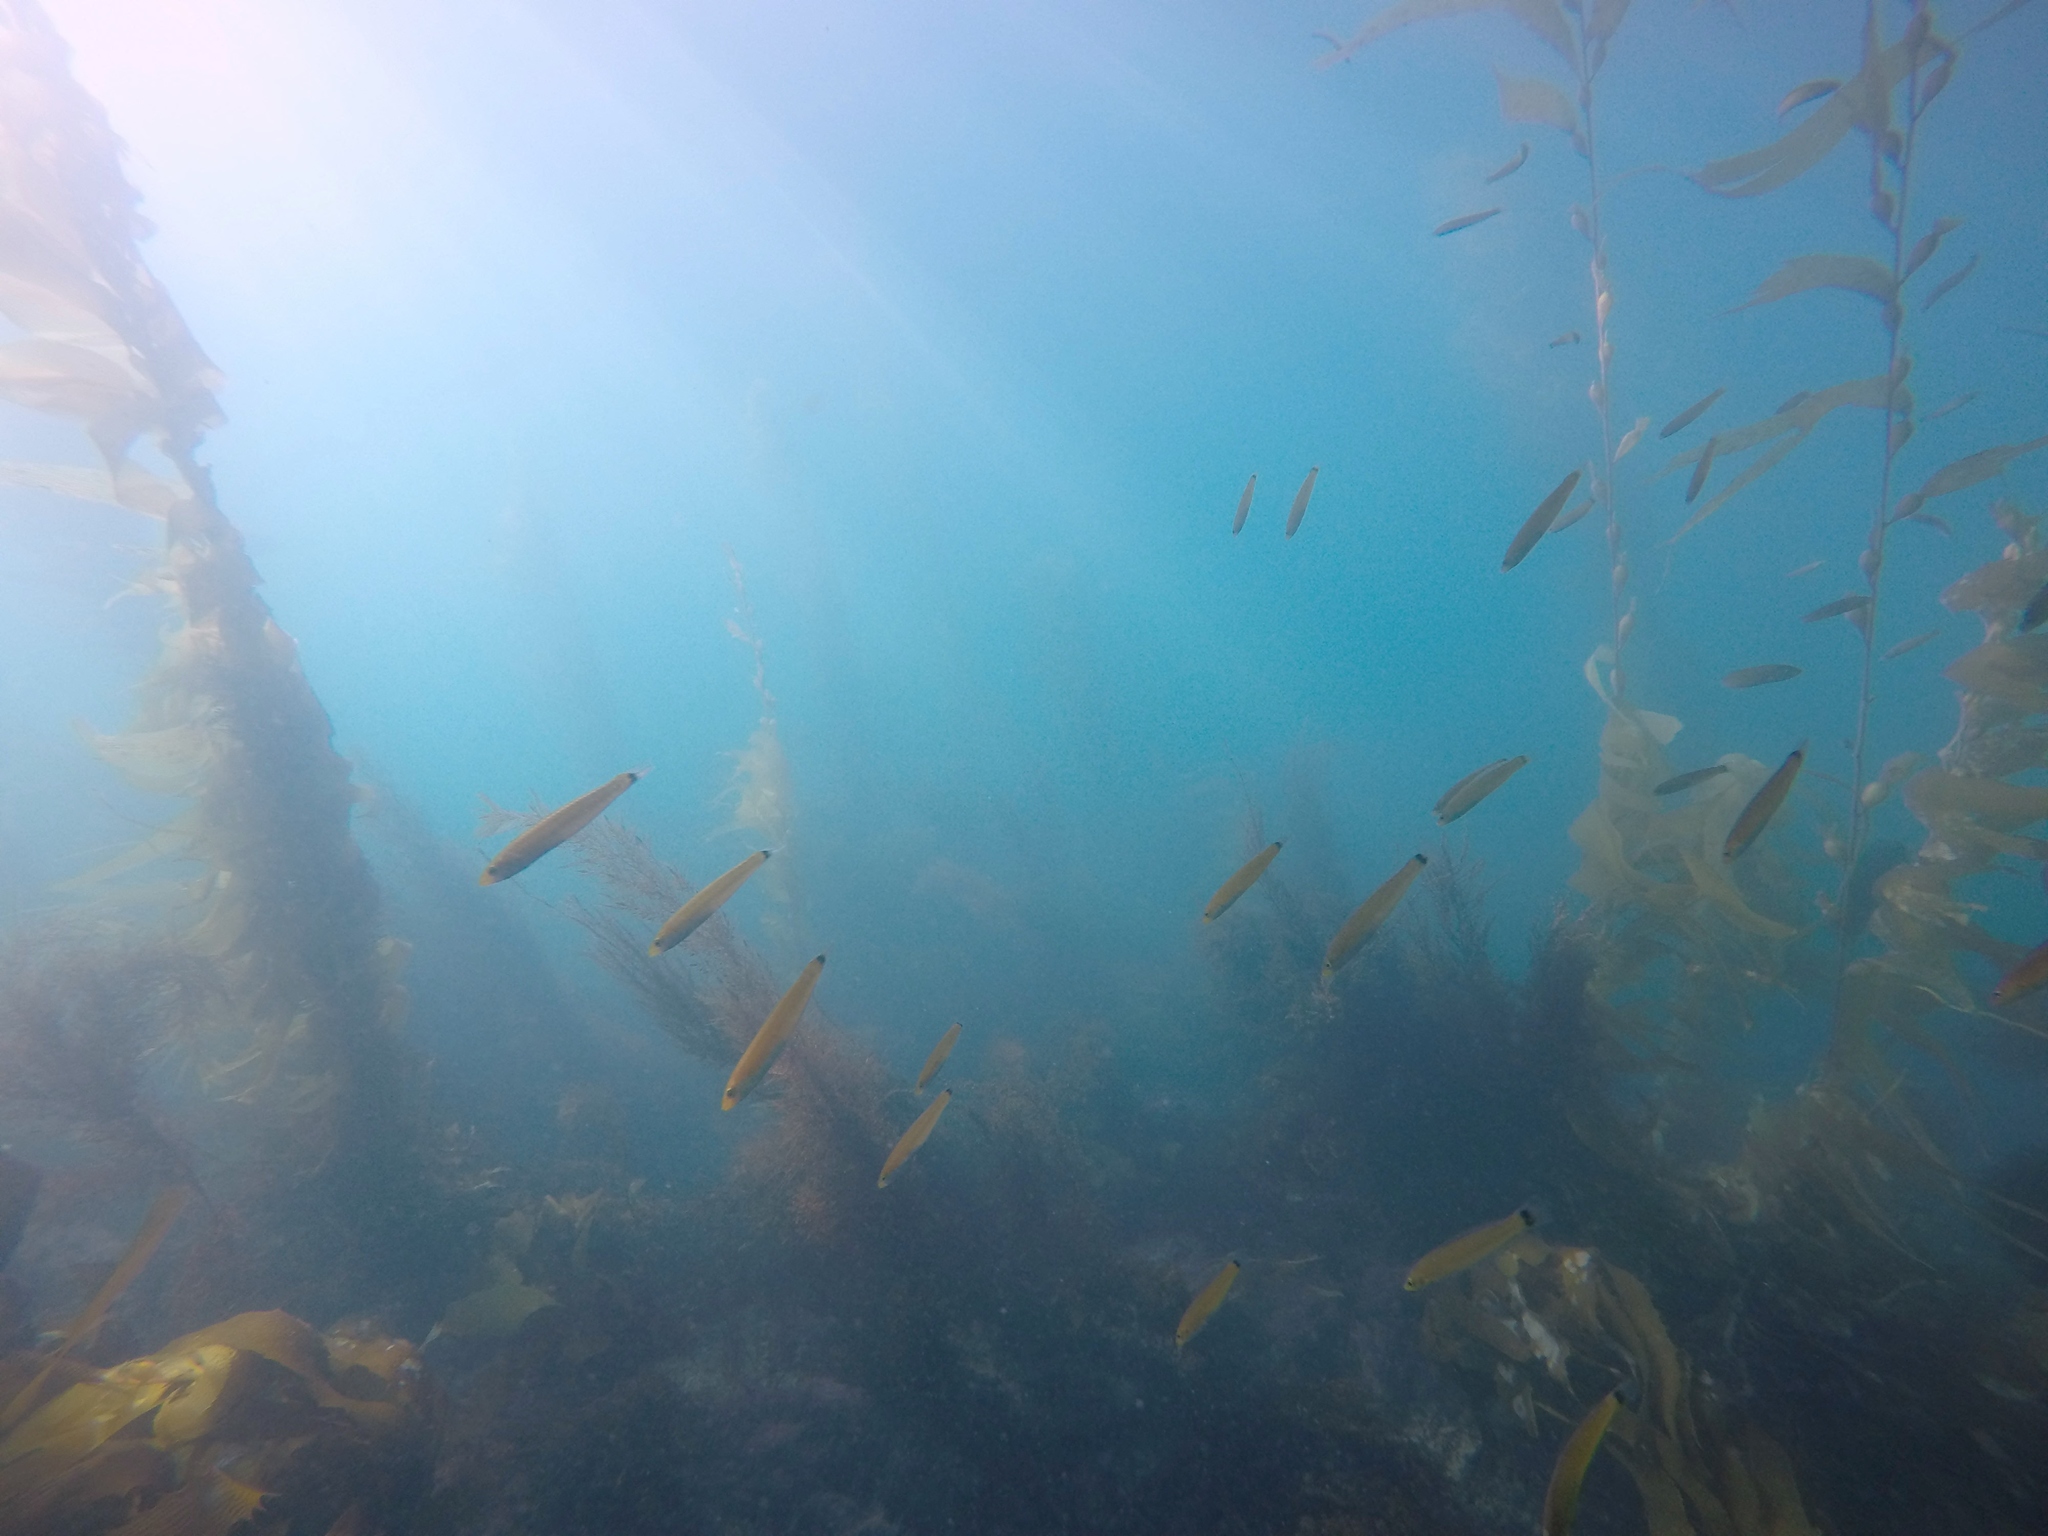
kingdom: Animalia
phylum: Chordata
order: Perciformes
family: Labridae
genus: Oxyjulis
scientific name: Oxyjulis californica
